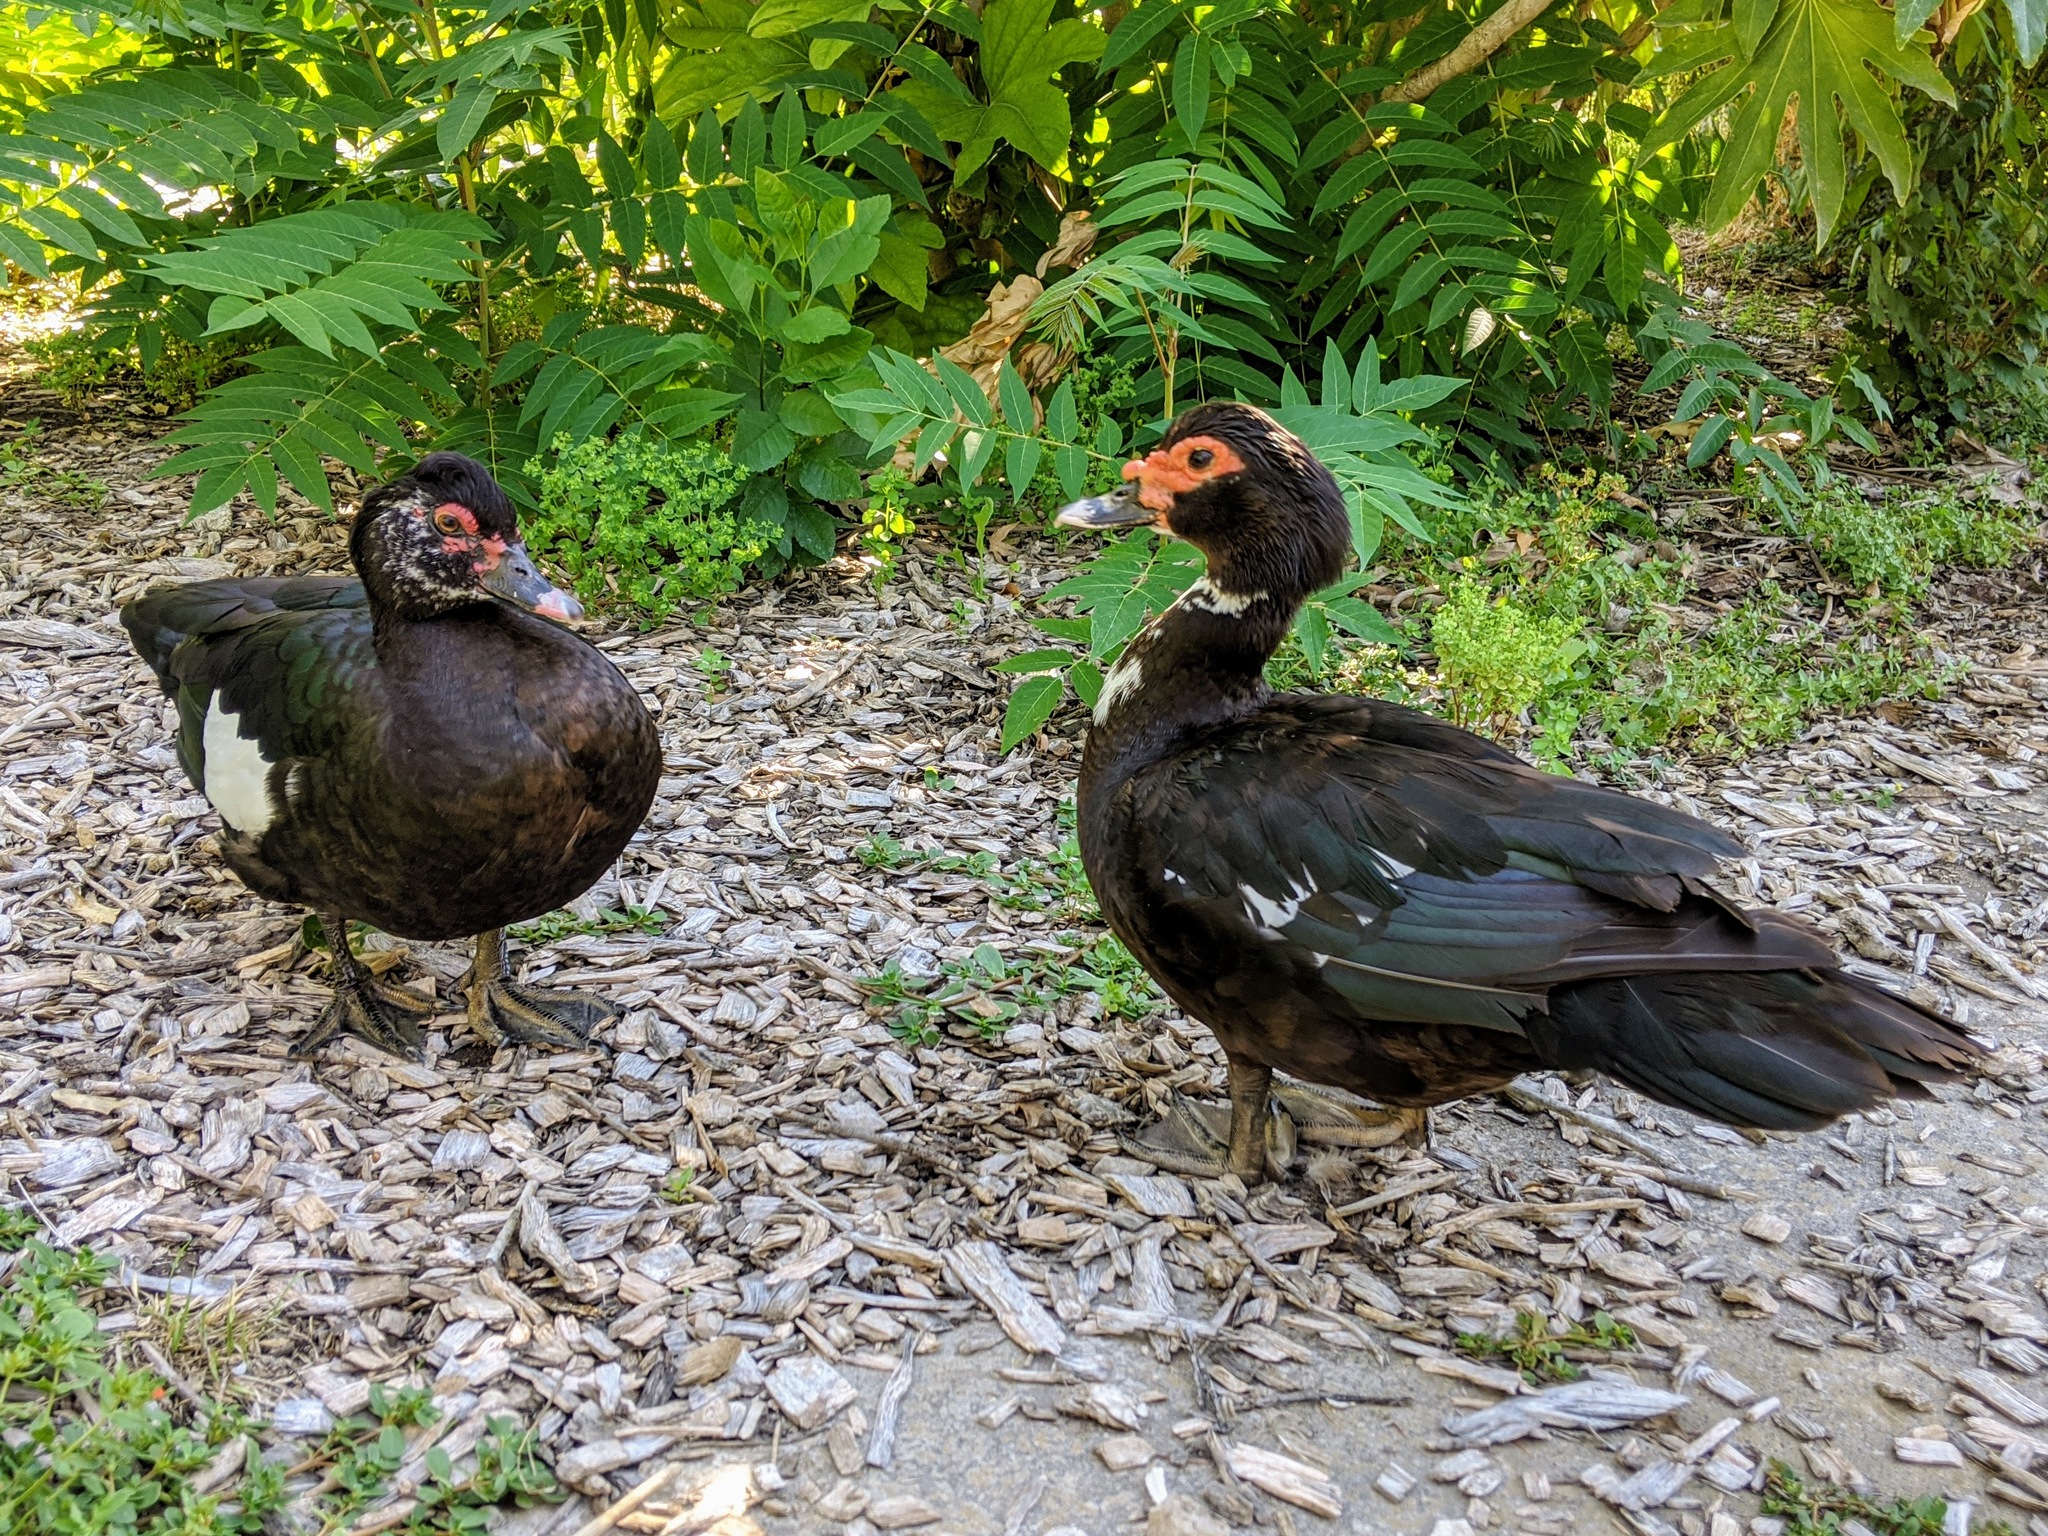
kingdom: Animalia
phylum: Chordata
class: Aves
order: Anseriformes
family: Anatidae
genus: Cairina
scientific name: Cairina moschata
